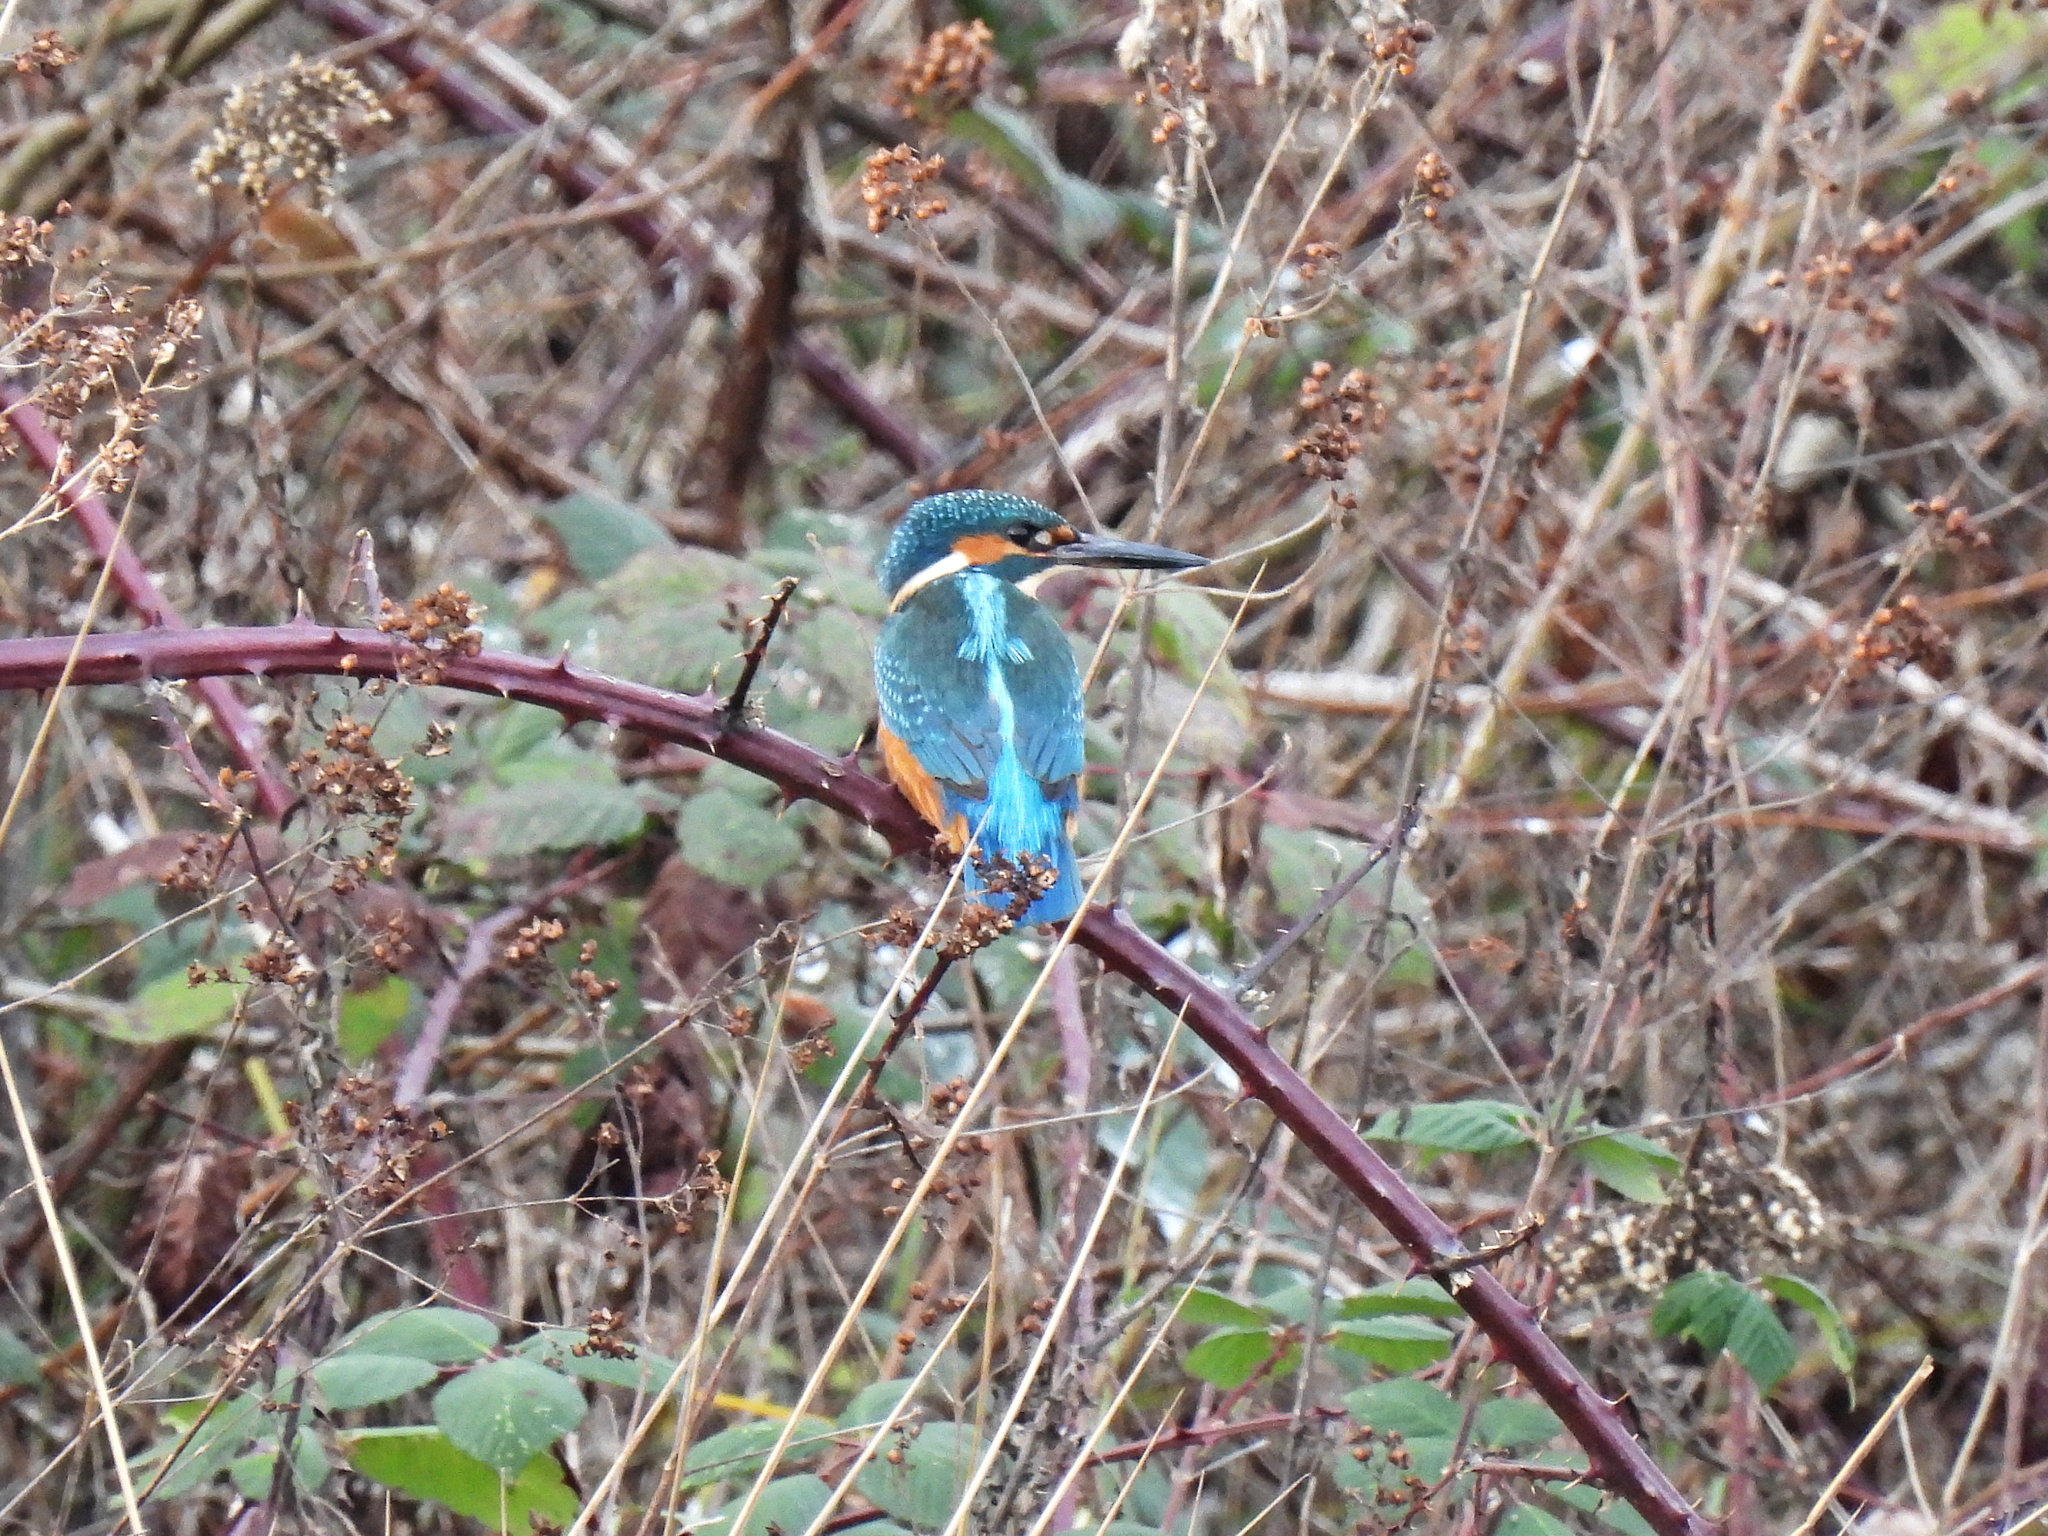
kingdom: Animalia
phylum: Chordata
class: Aves
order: Coraciiformes
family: Alcedinidae
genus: Alcedo
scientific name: Alcedo atthis
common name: Common kingfisher
